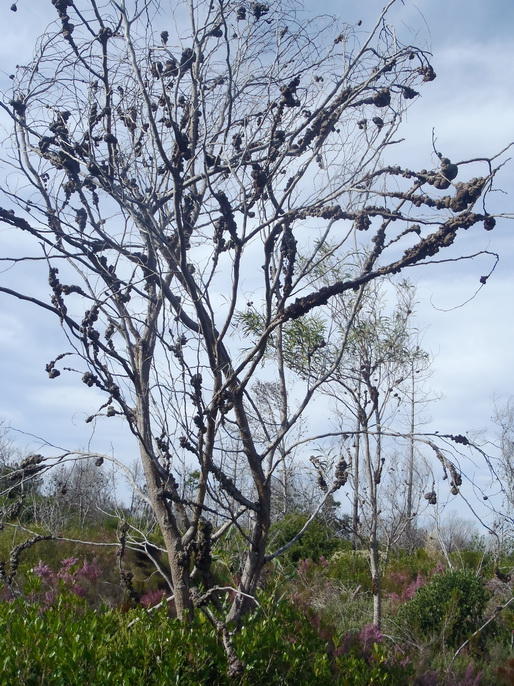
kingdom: Plantae
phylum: Tracheophyta
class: Magnoliopsida
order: Fabales
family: Fabaceae
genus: Acacia
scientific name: Acacia saligna
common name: Orange wattle
